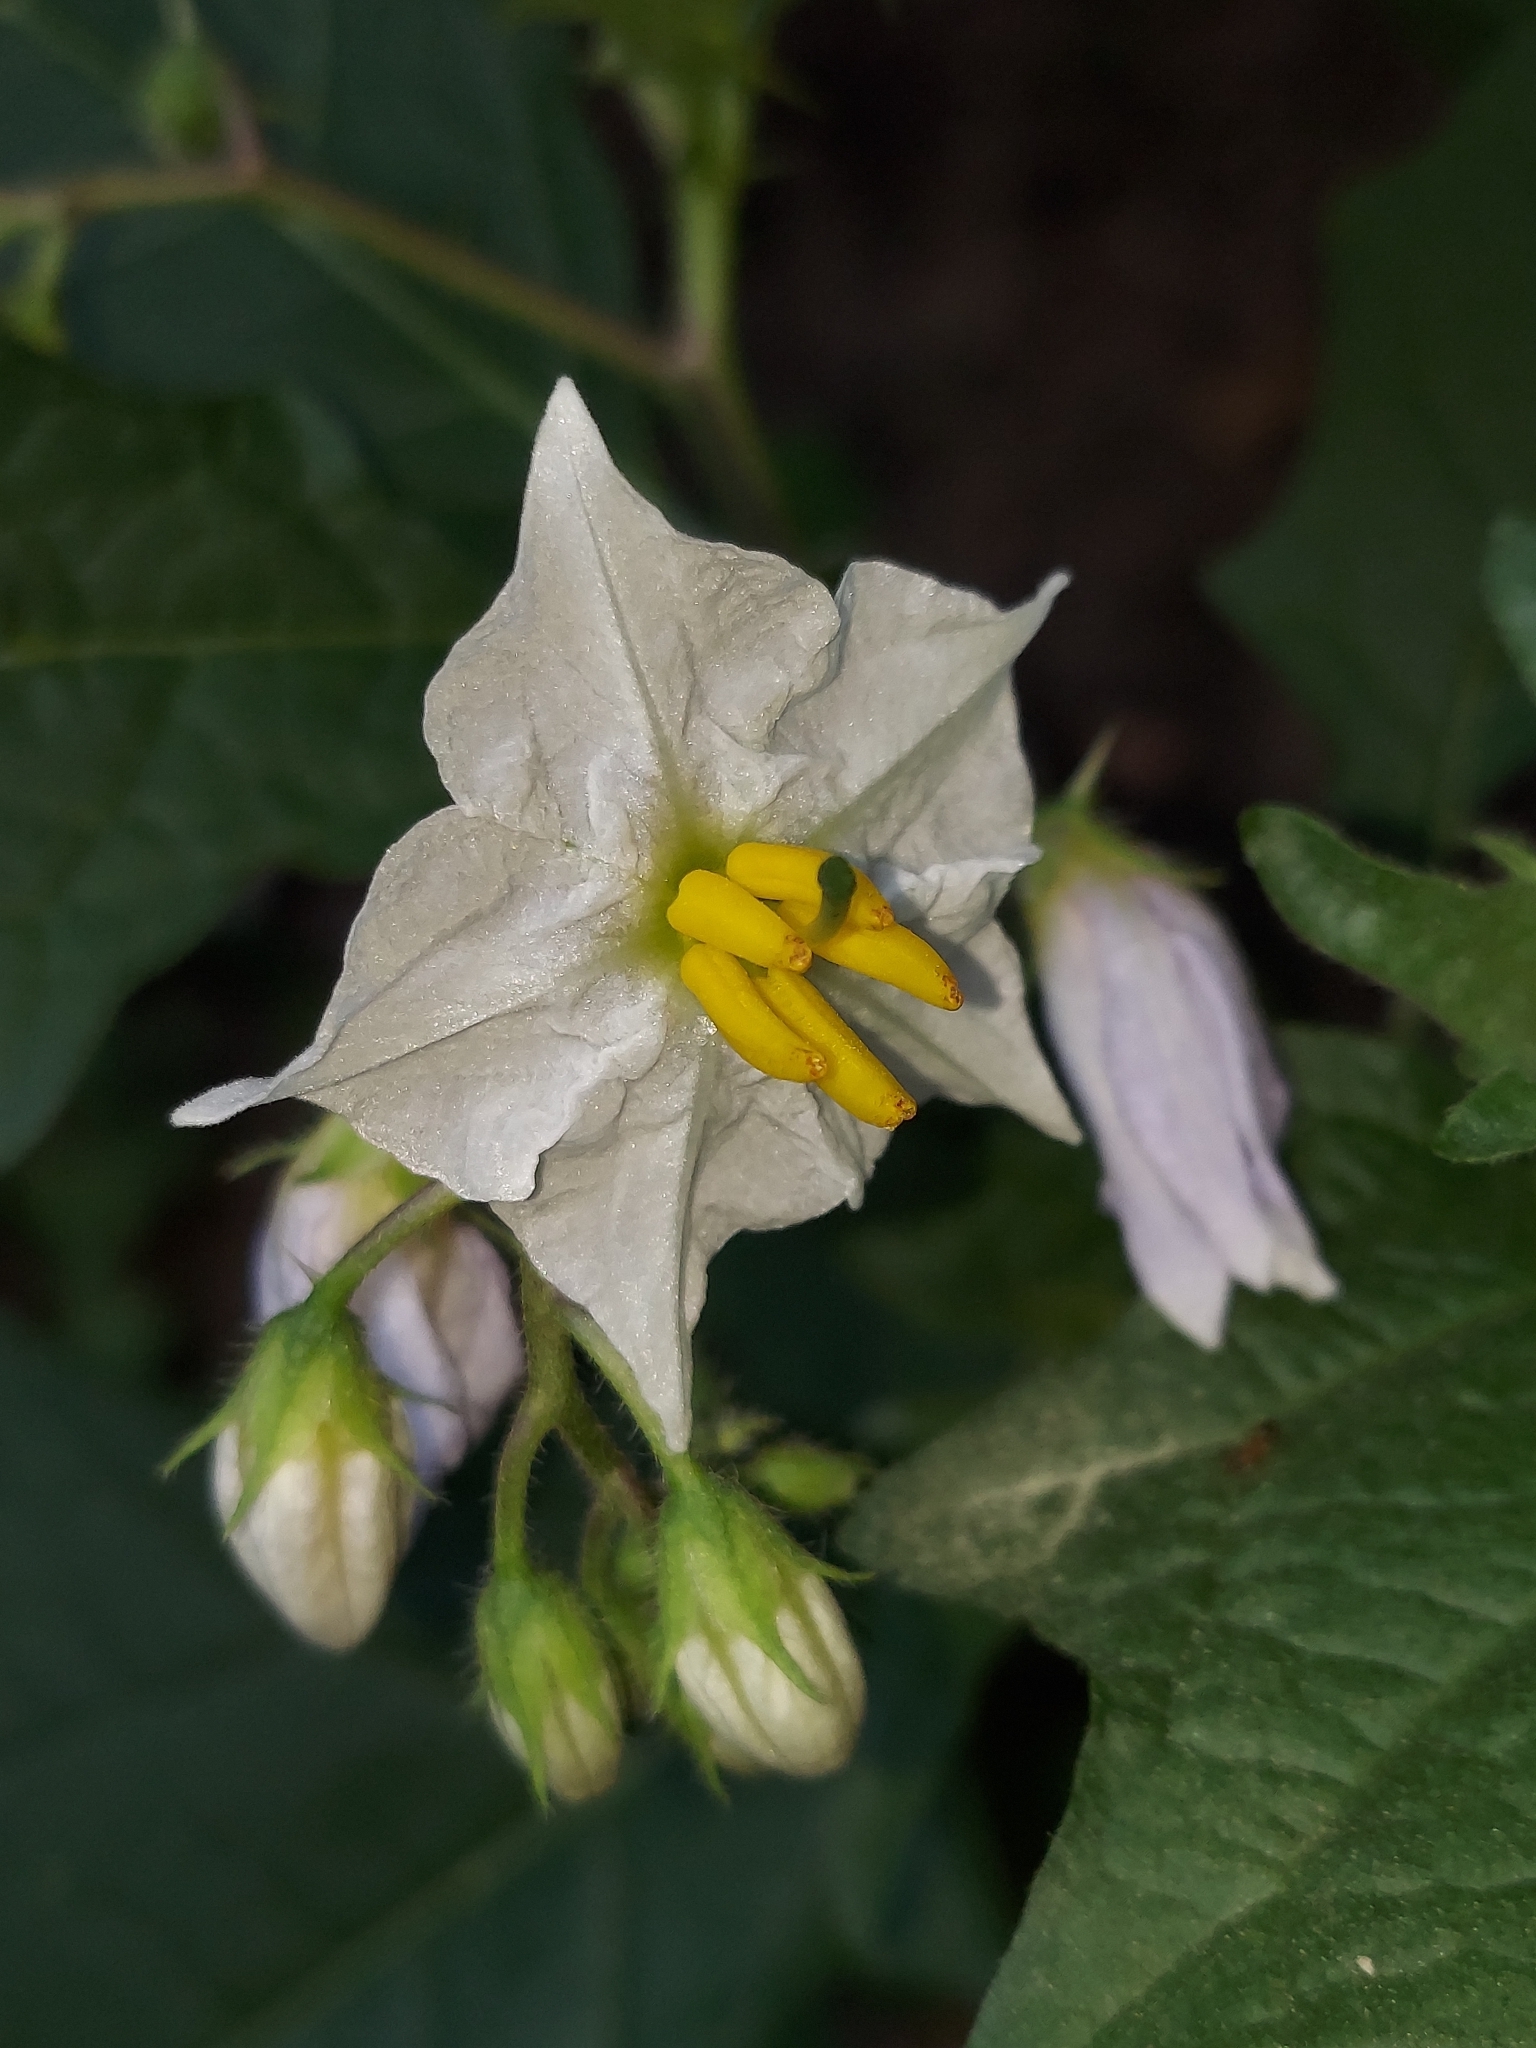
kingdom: Plantae
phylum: Tracheophyta
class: Magnoliopsida
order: Solanales
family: Solanaceae
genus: Solanum
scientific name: Solanum carolinense
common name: Horse-nettle
